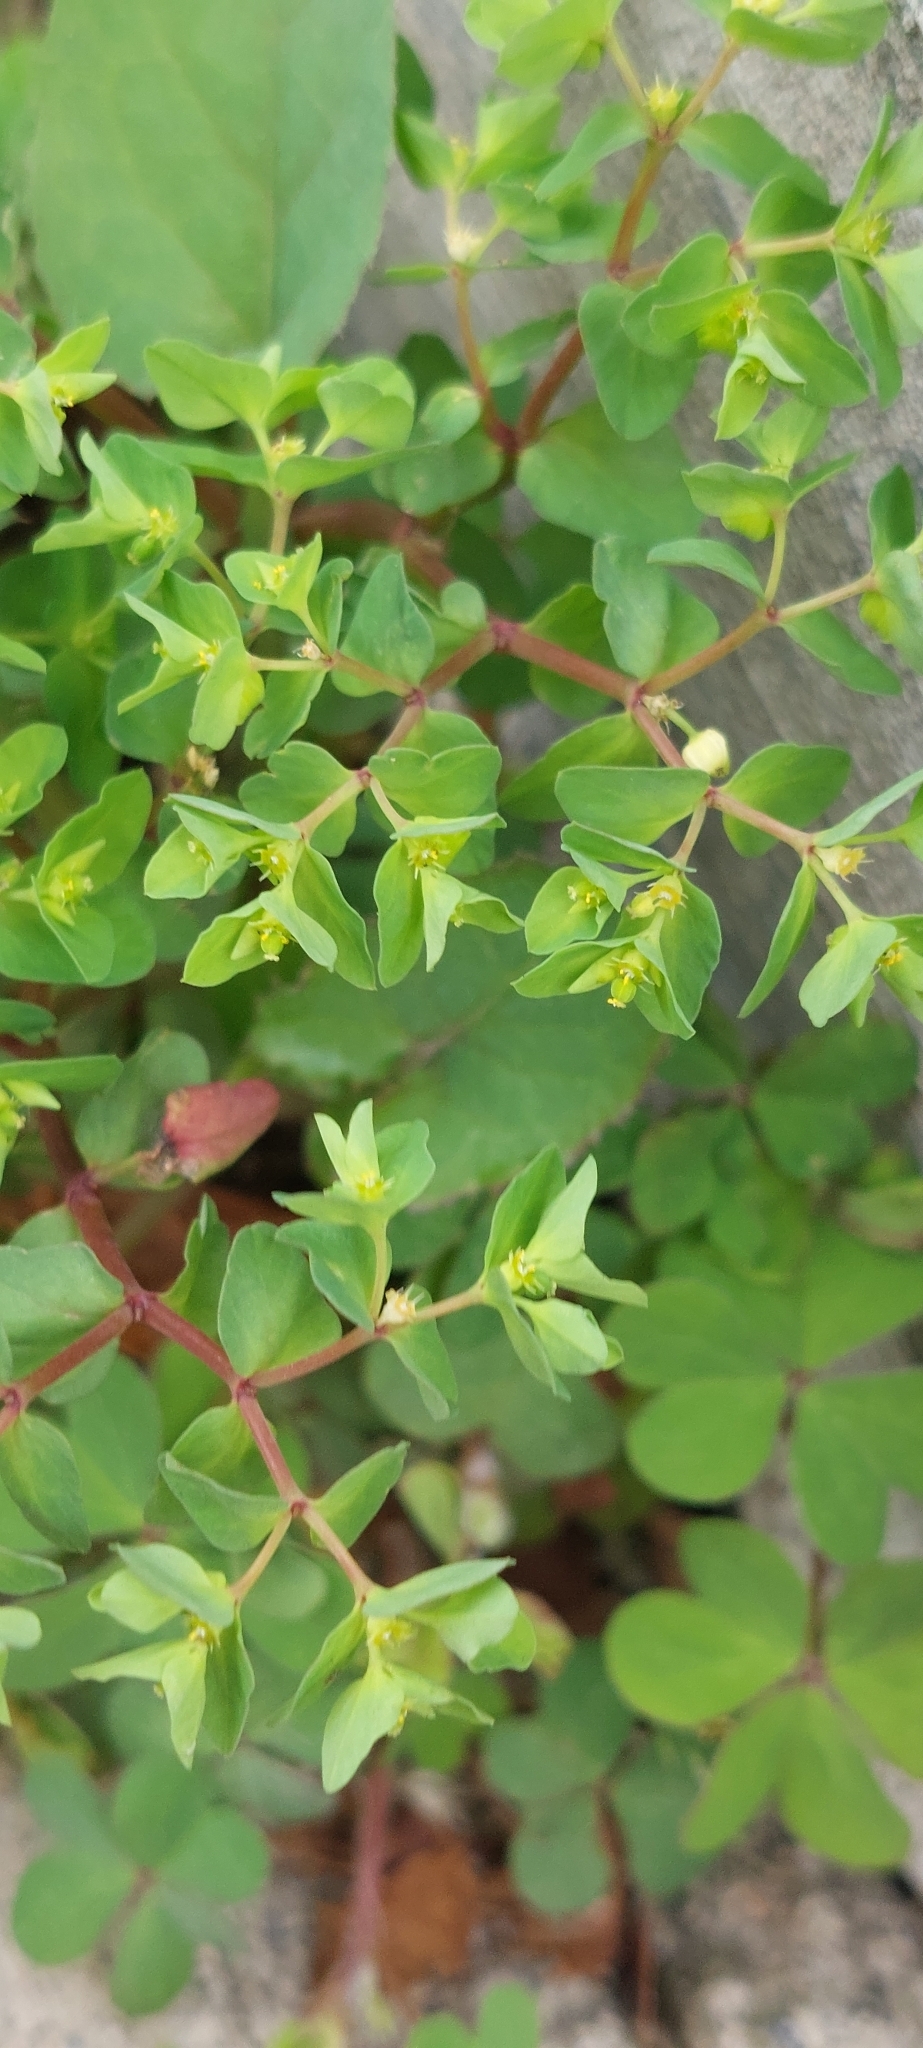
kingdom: Plantae
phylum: Tracheophyta
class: Magnoliopsida
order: Malpighiales
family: Euphorbiaceae
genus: Euphorbia
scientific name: Euphorbia peplus
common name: Petty spurge
